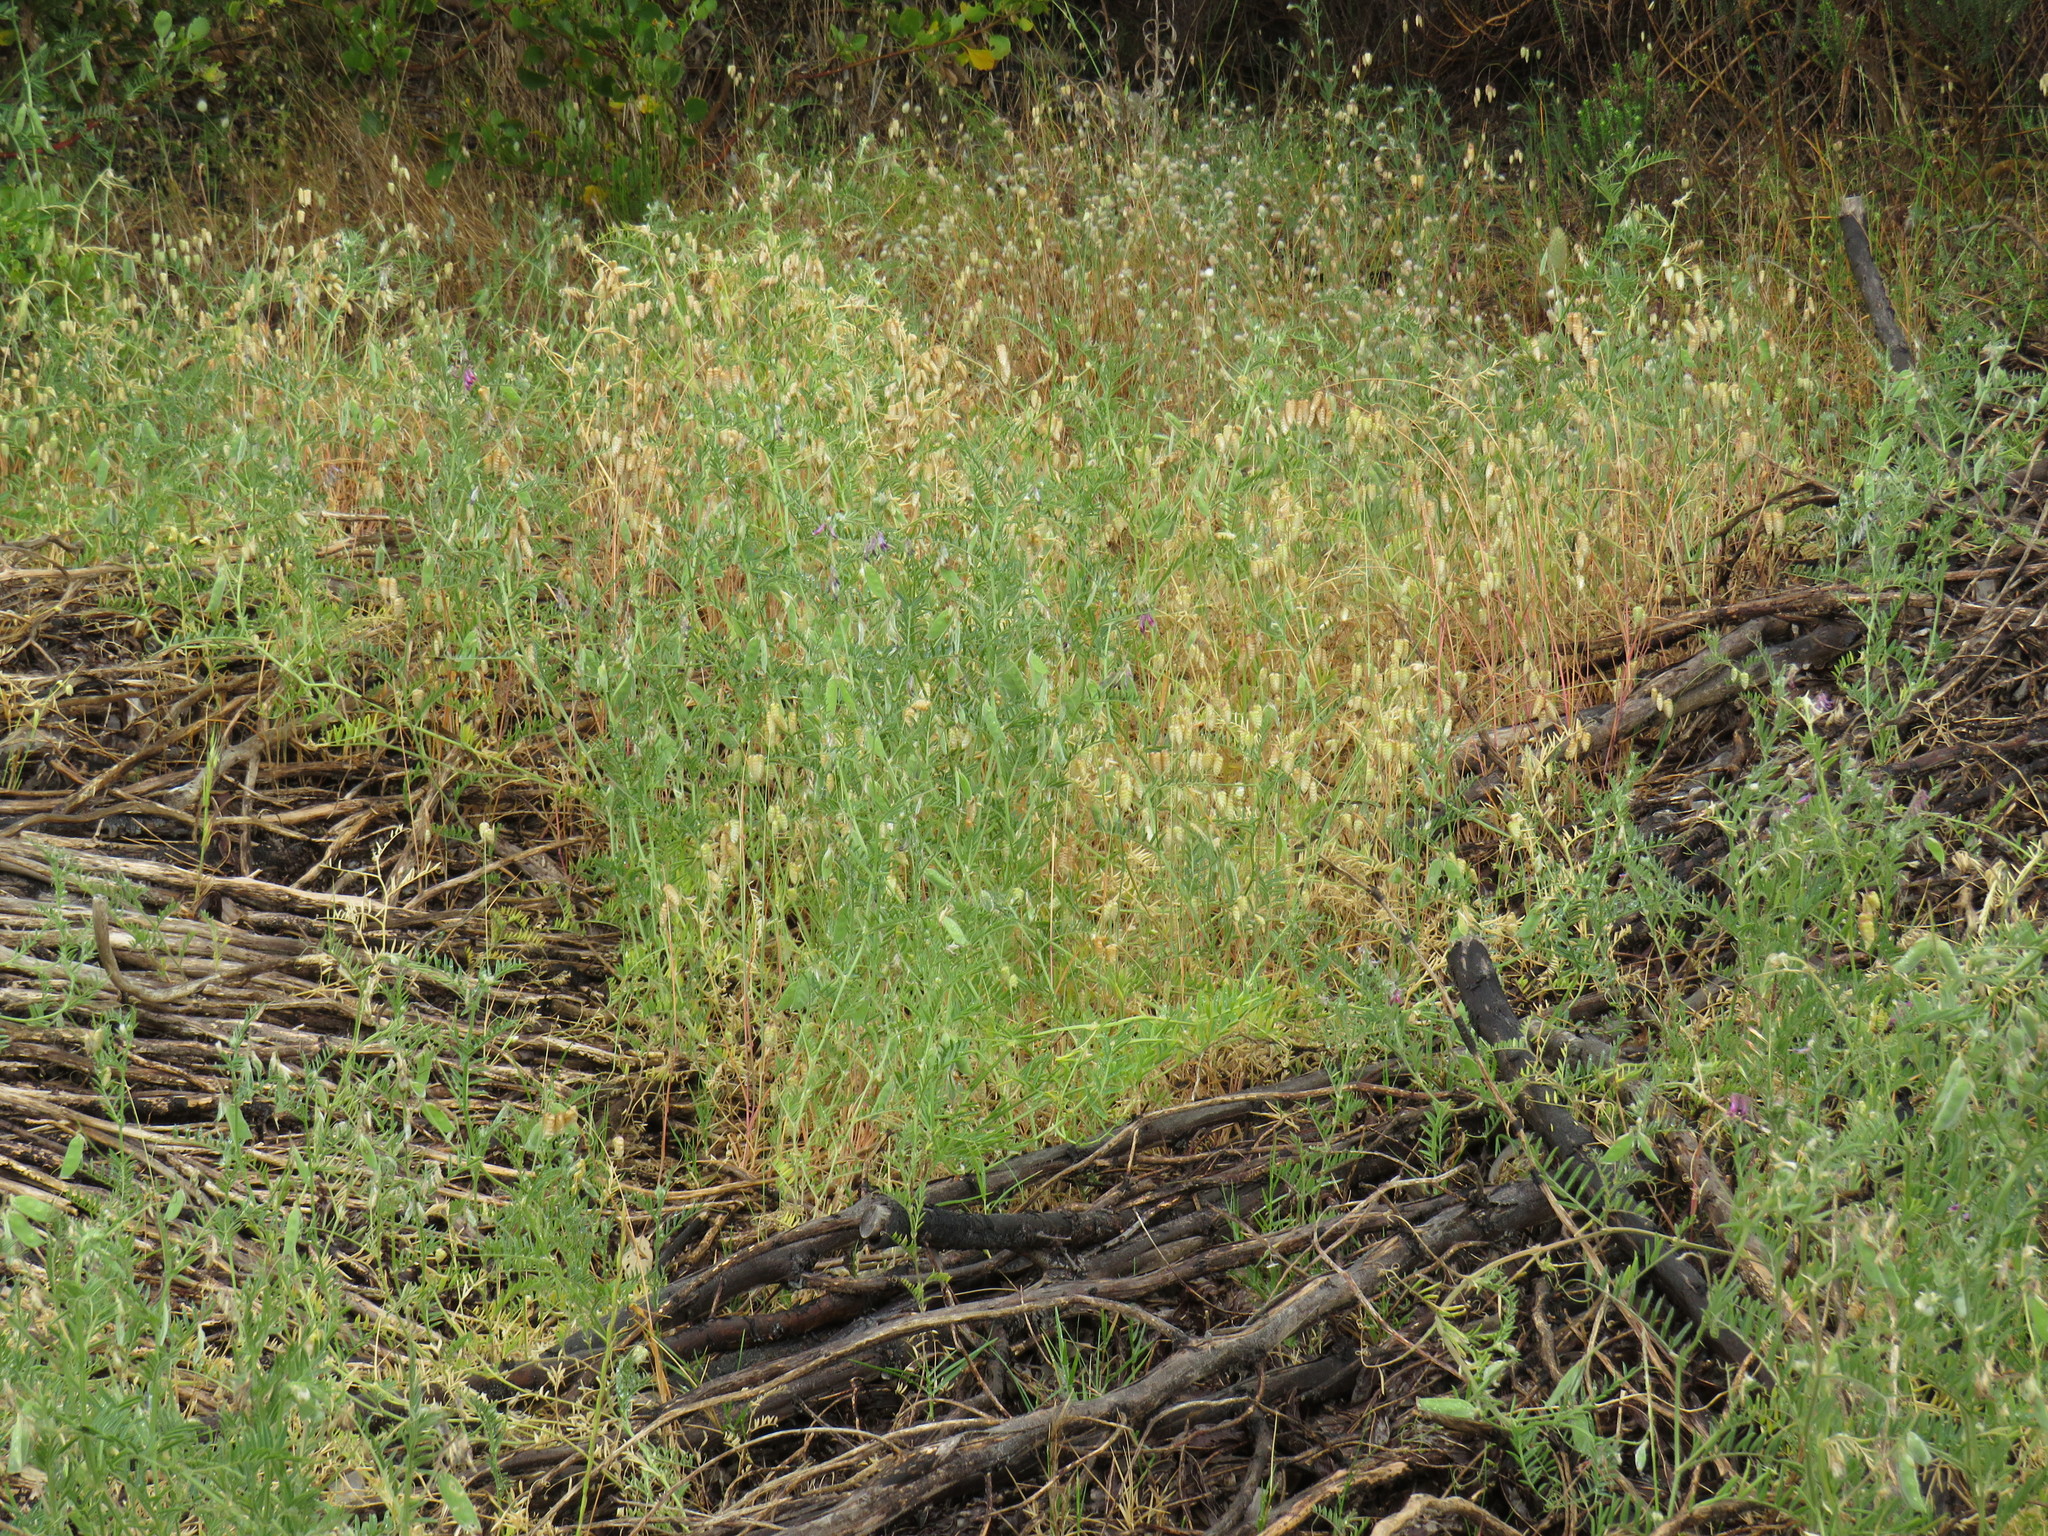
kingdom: Plantae
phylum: Tracheophyta
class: Magnoliopsida
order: Fabales
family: Fabaceae
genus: Vicia
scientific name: Vicia benghalensis
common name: Purple vetch
